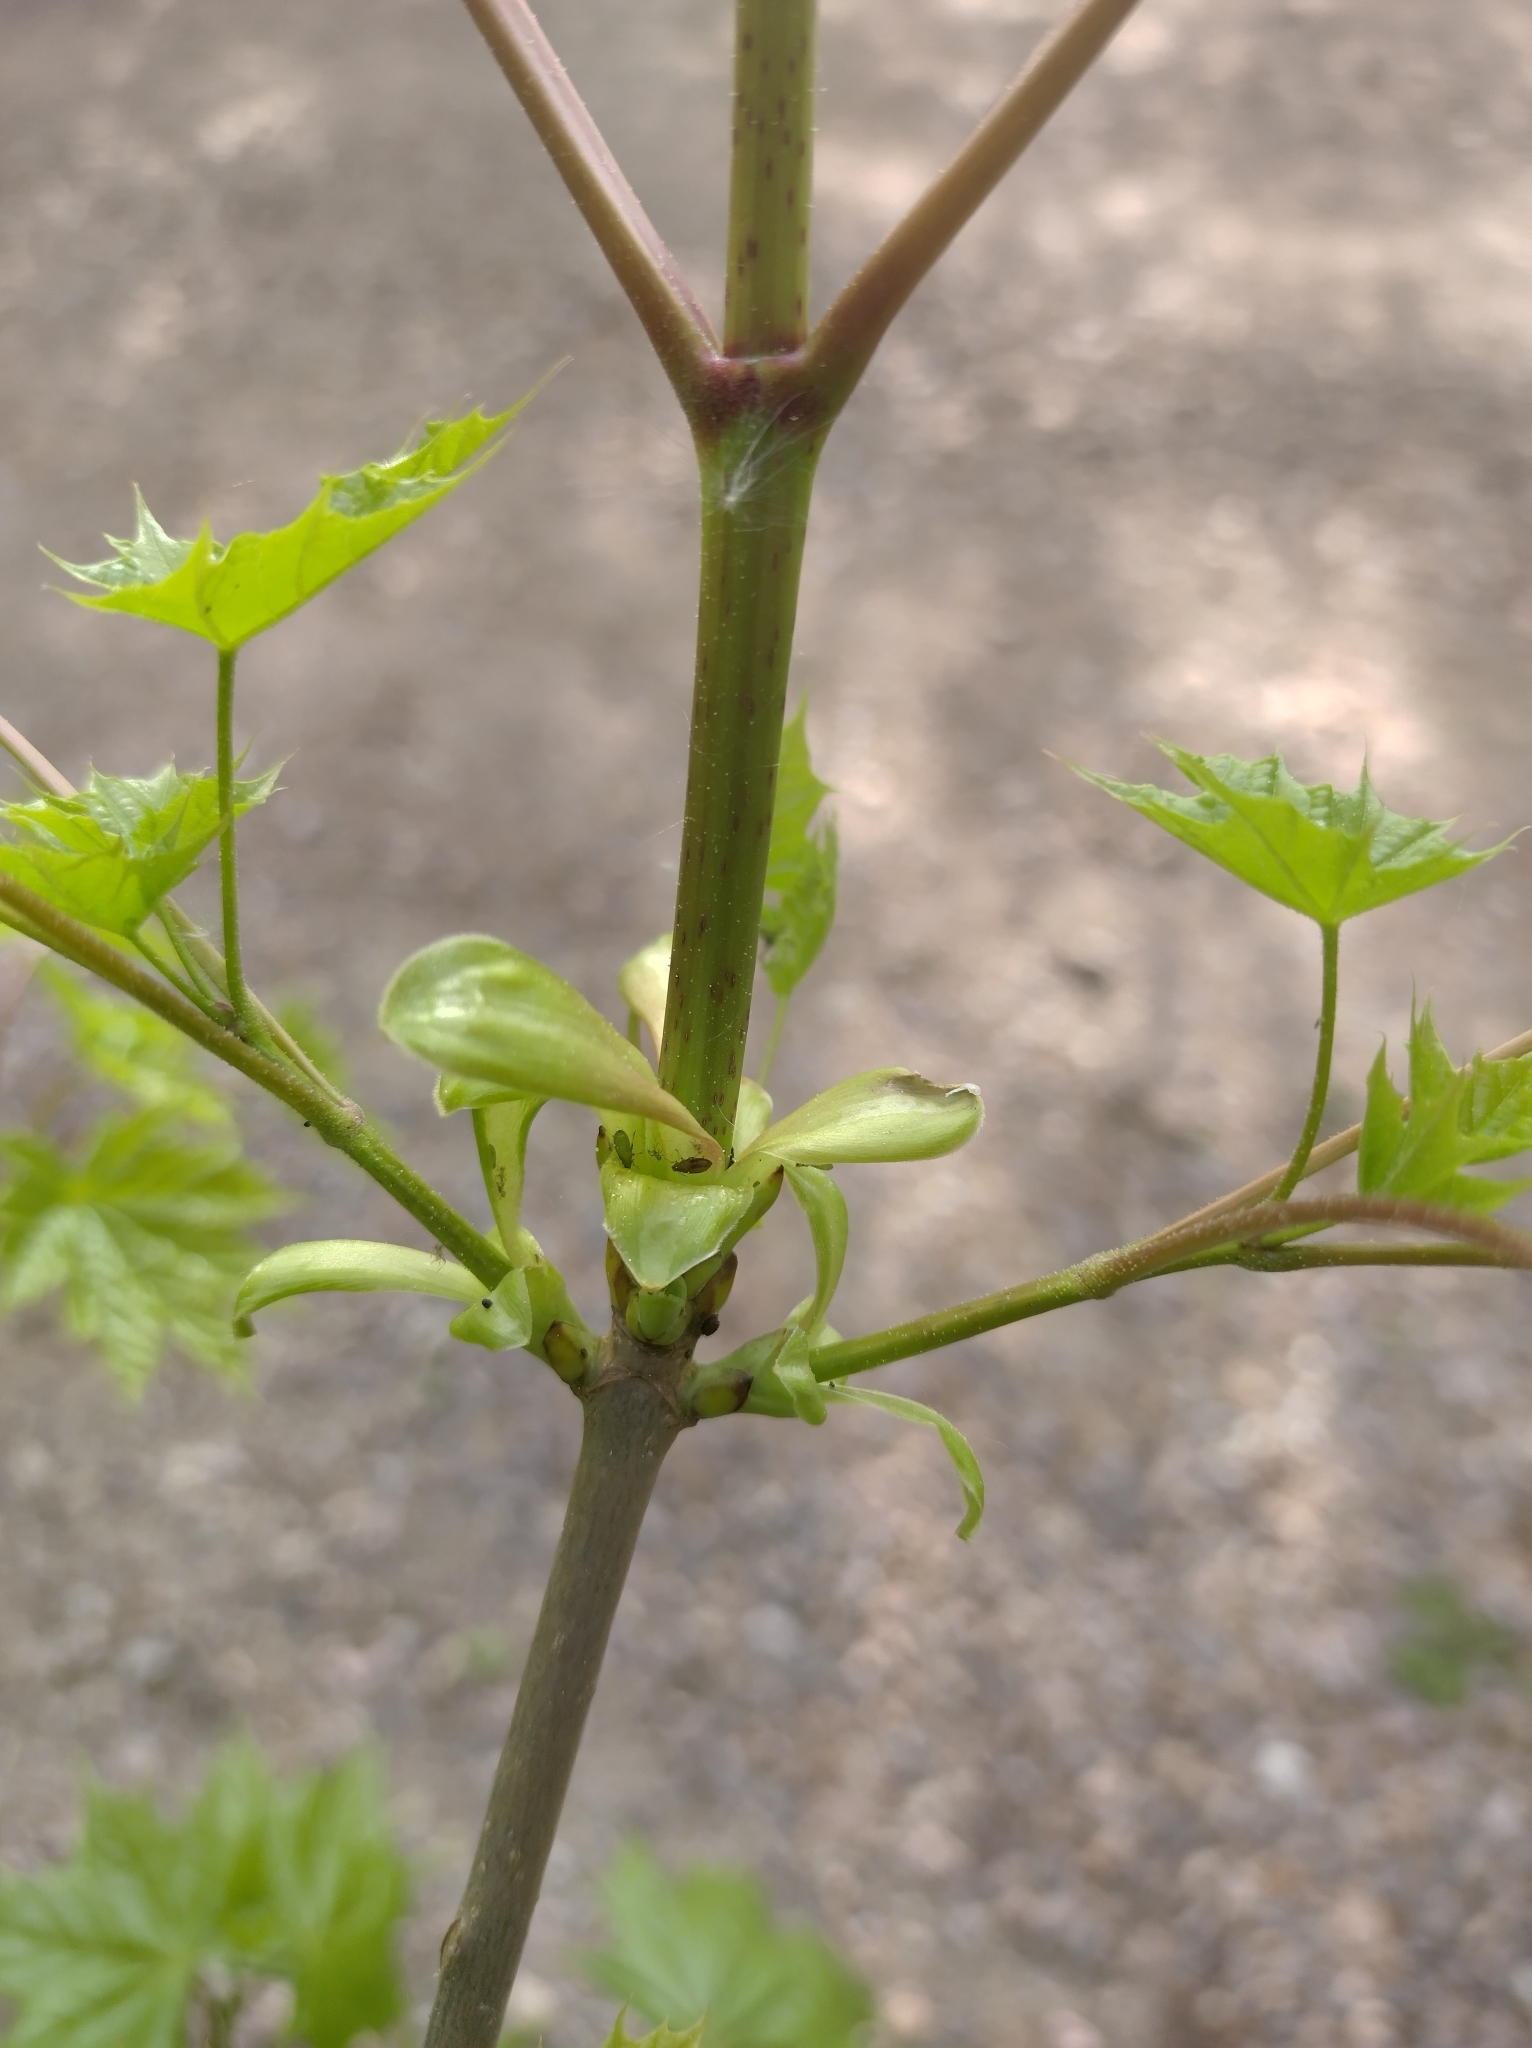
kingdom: Plantae
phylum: Tracheophyta
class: Magnoliopsida
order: Sapindales
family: Sapindaceae
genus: Acer
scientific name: Acer platanoides
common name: Norway maple
